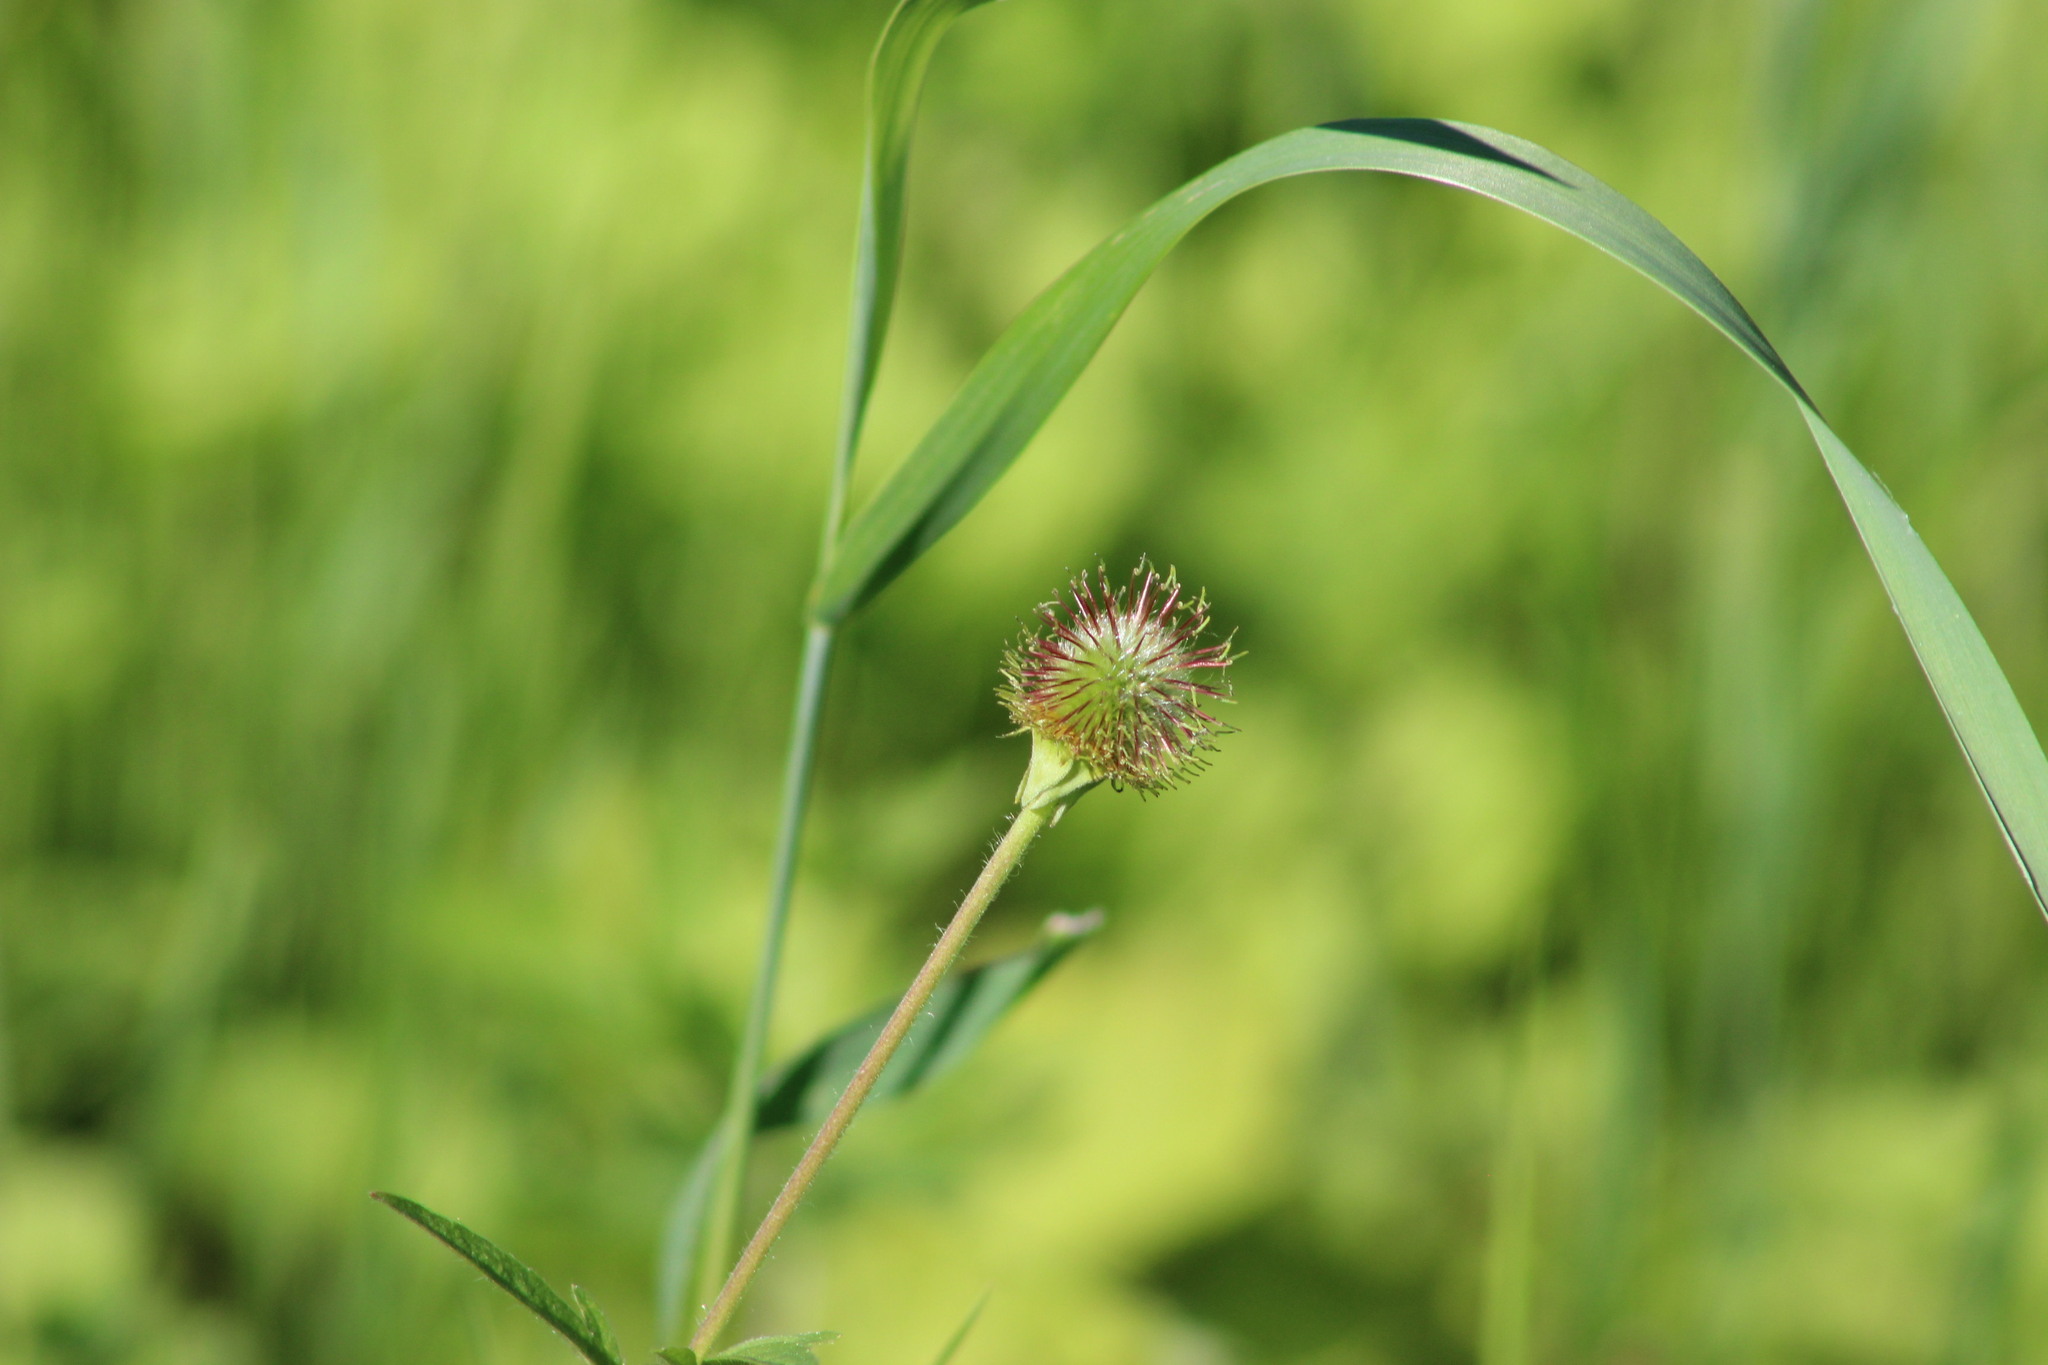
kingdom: Plantae
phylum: Tracheophyta
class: Magnoliopsida
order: Rosales
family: Rosaceae
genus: Geum
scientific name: Geum aleppicum
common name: Yellow avens
